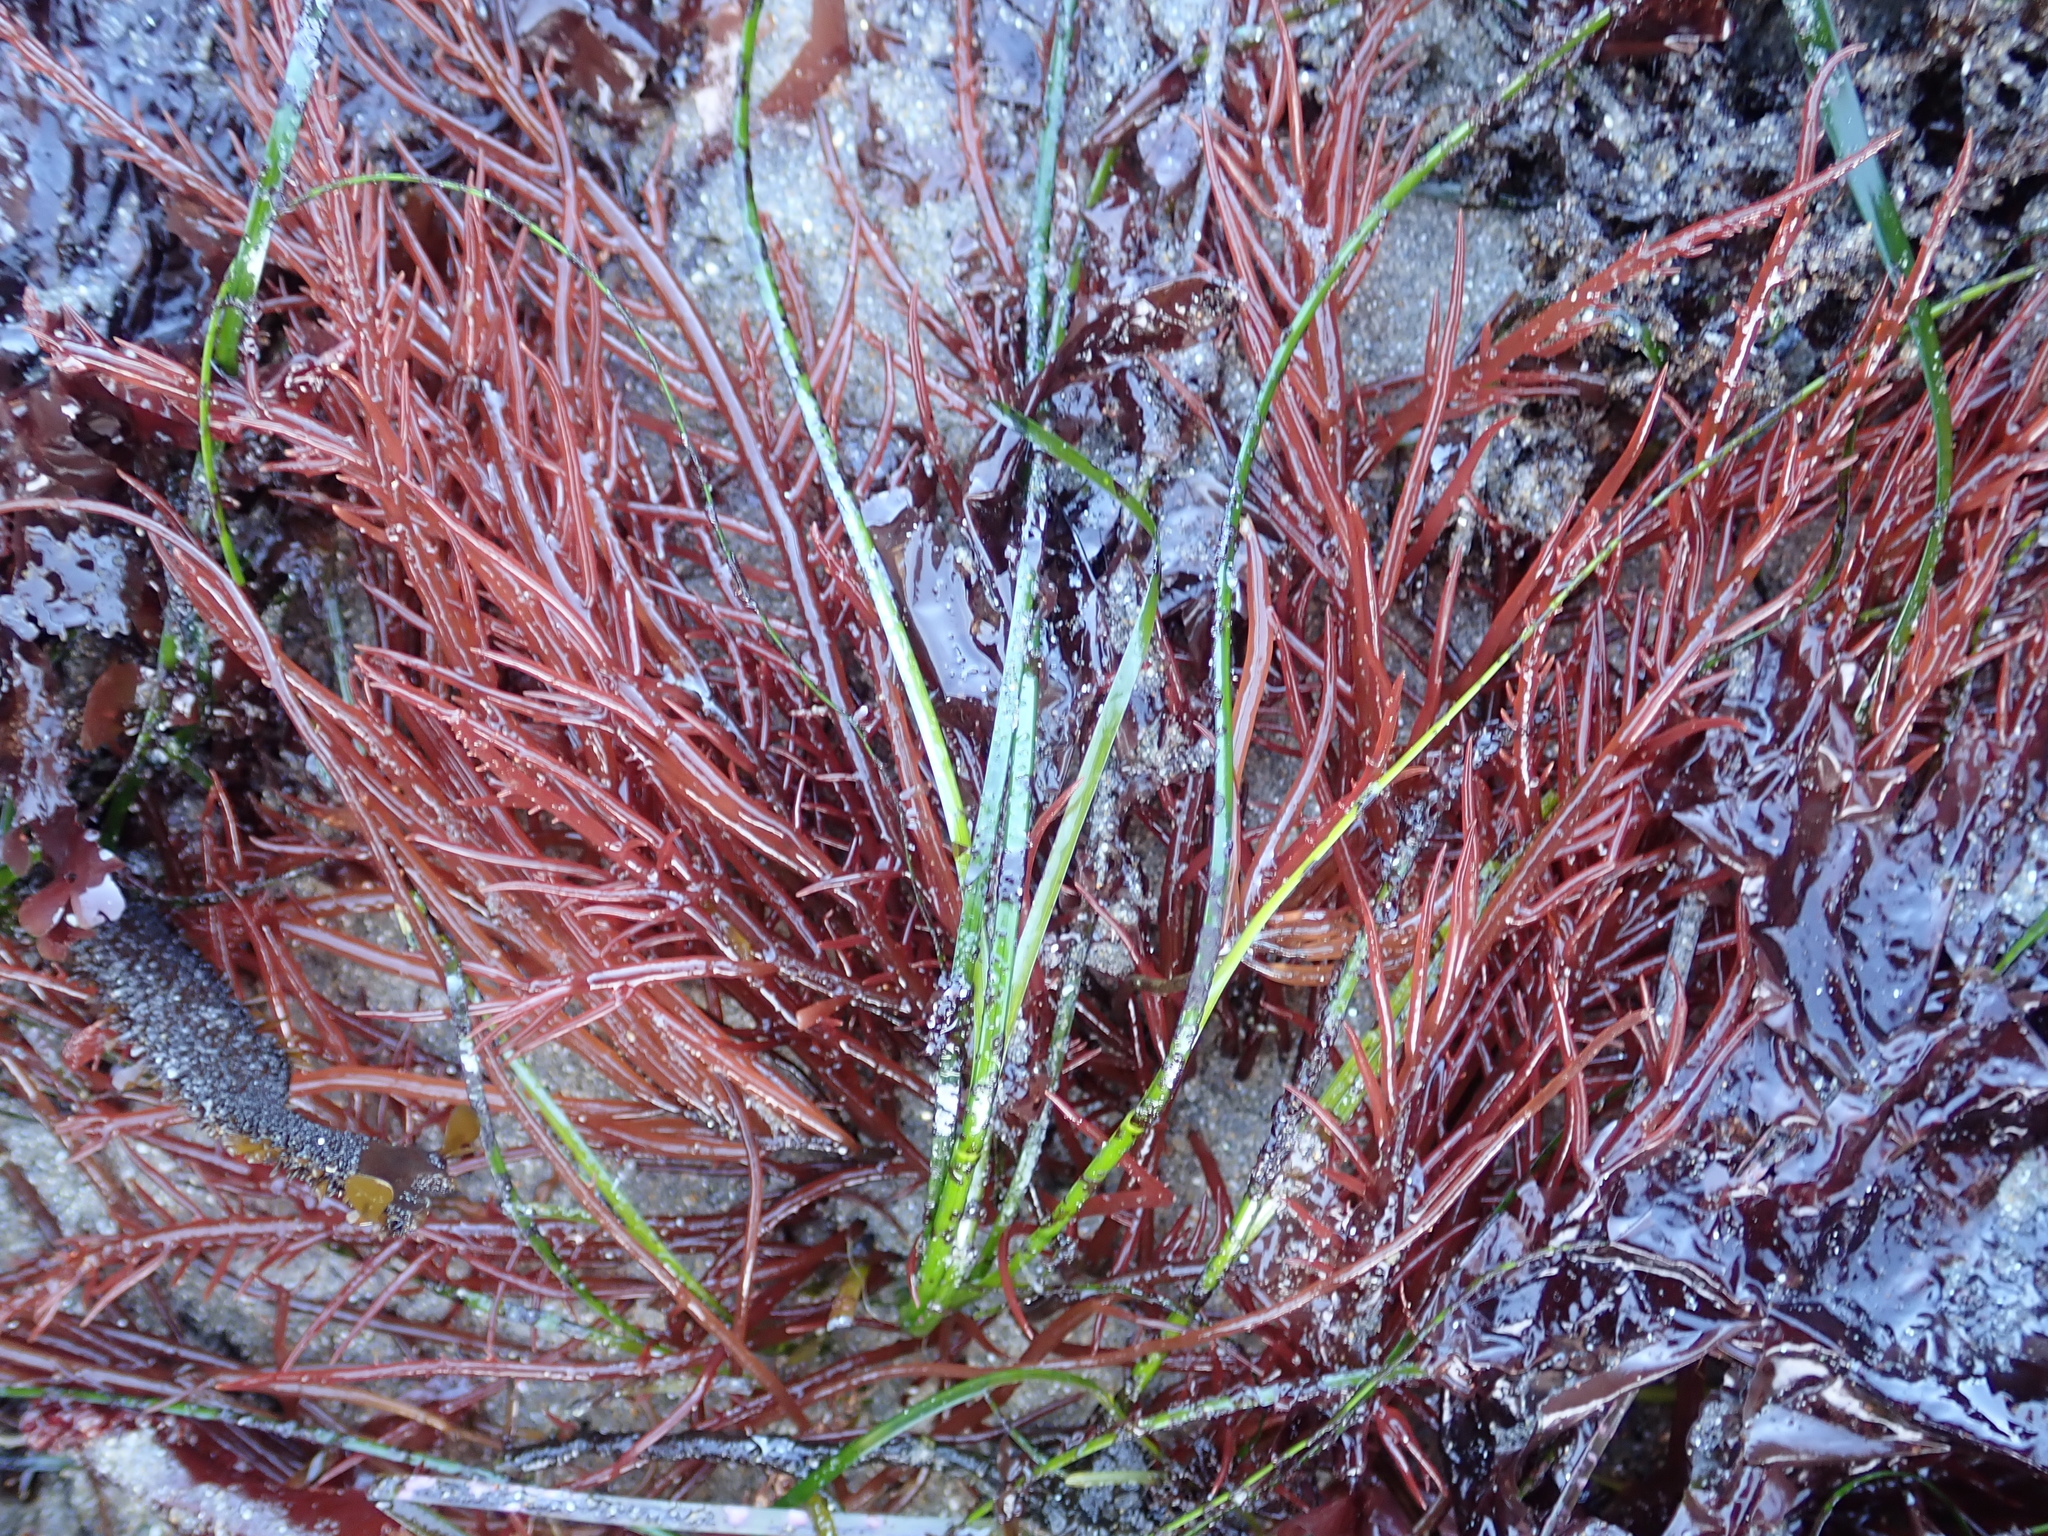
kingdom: Plantae
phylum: Rhodophyta
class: Florideophyceae
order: Gigartinales
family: Solieriaceae
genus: Sarcodiotheca
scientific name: Sarcodiotheca gaudichaudii
